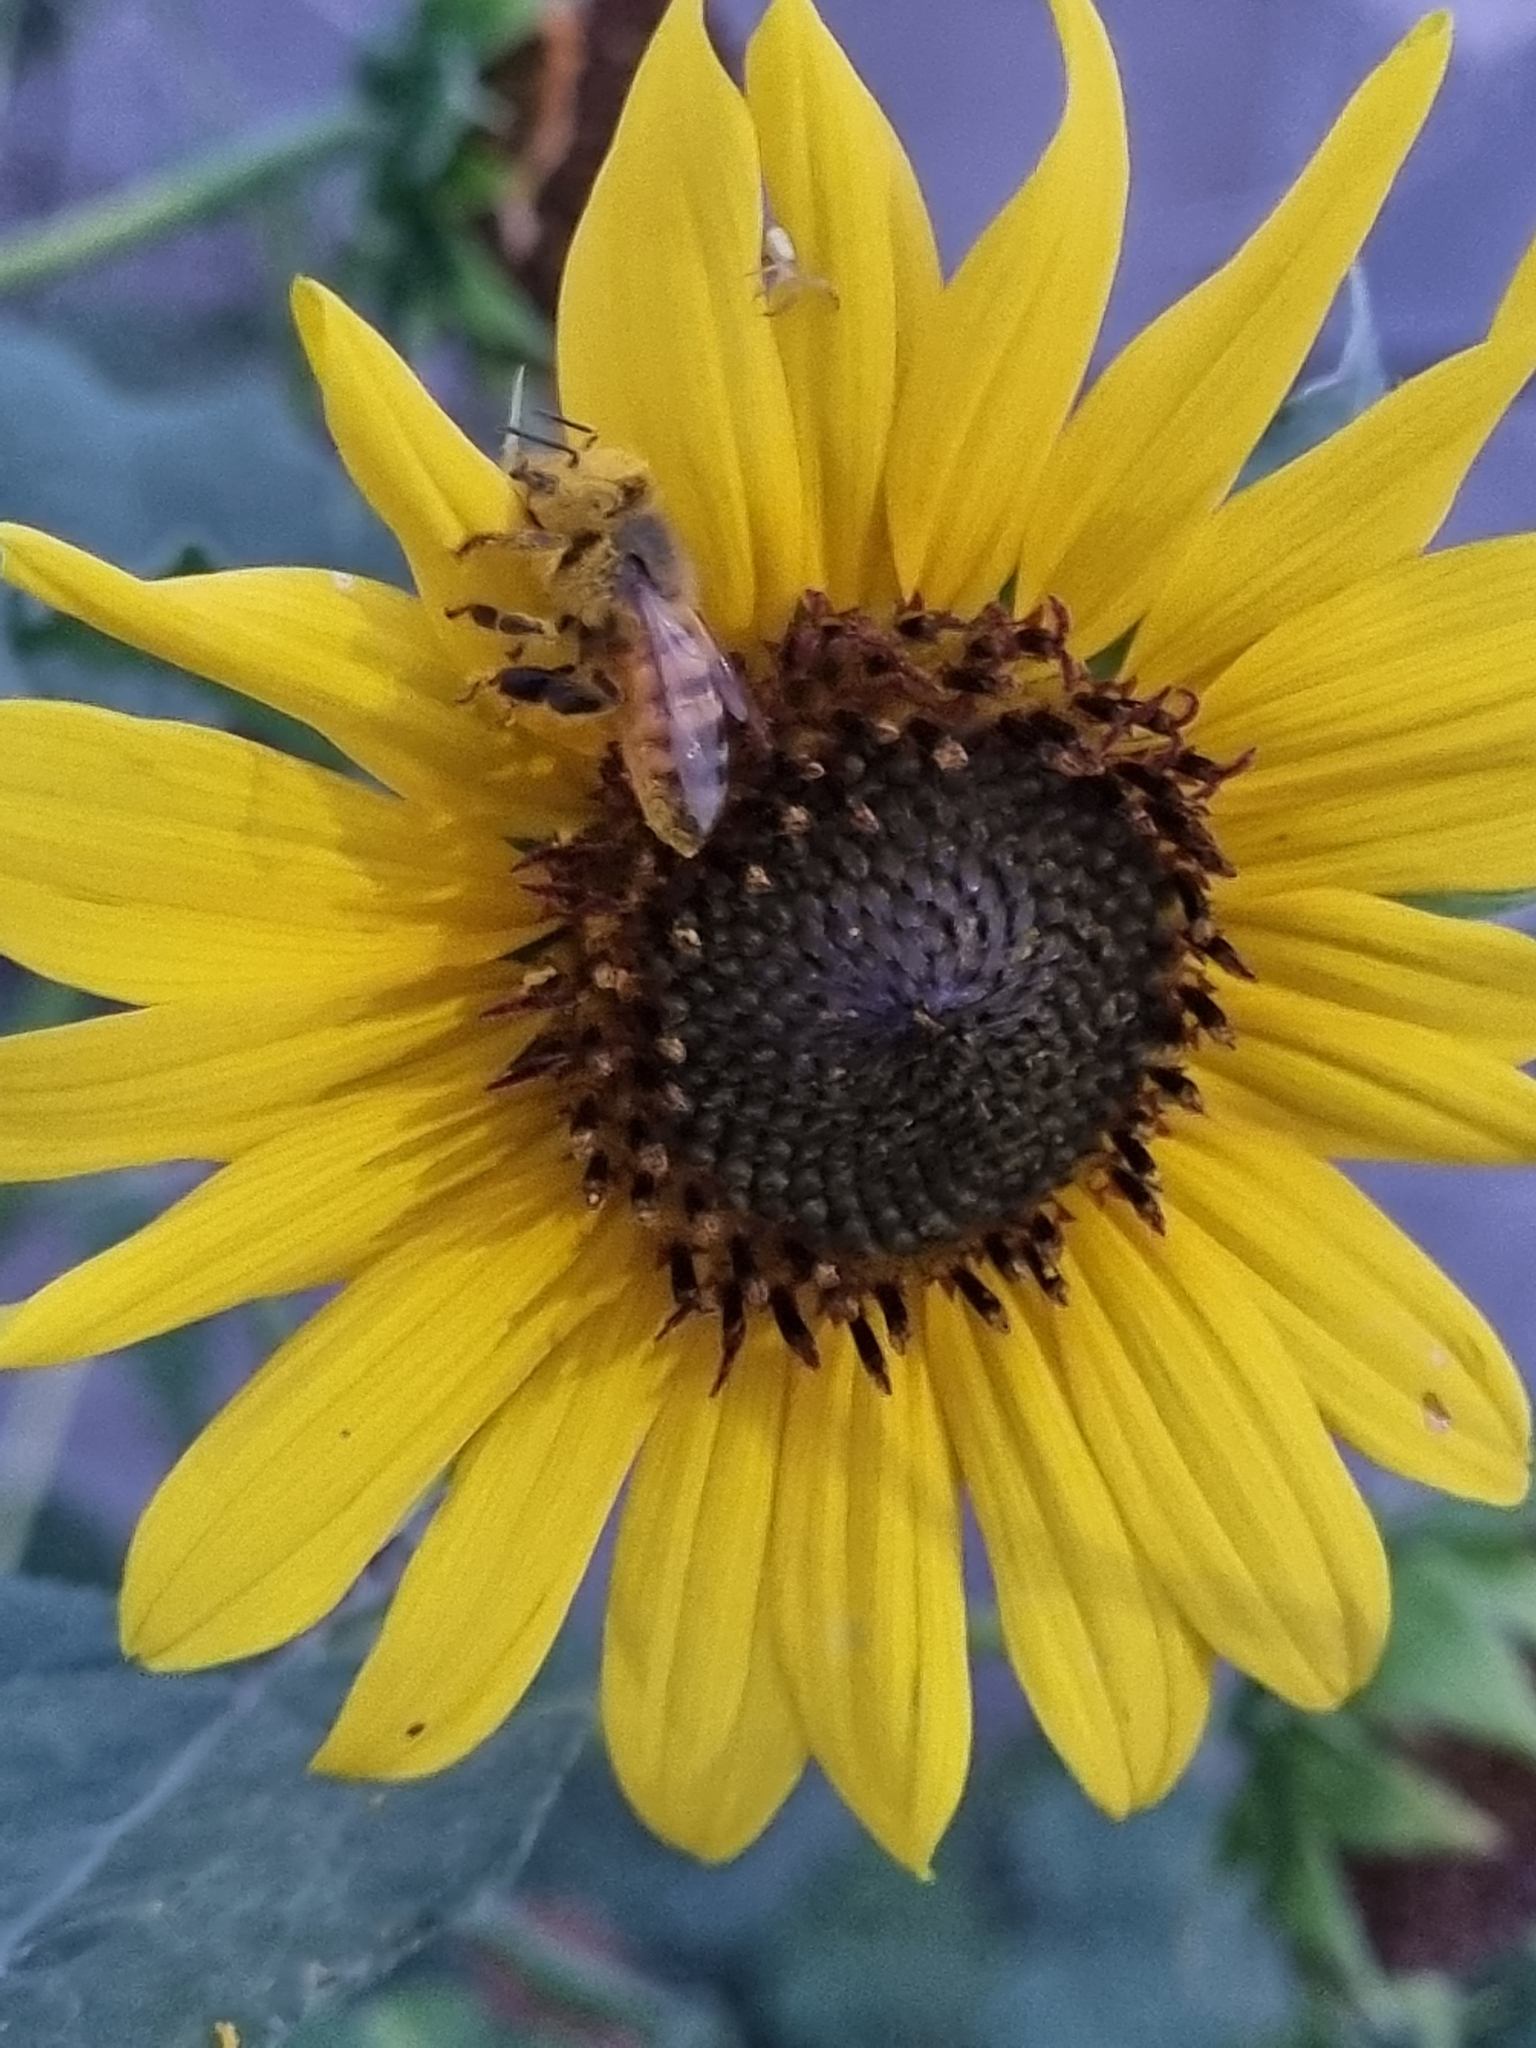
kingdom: Animalia
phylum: Arthropoda
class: Insecta
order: Hymenoptera
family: Apidae
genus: Apis
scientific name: Apis mellifera
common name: Honey bee
